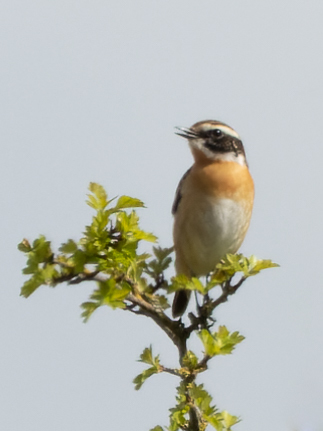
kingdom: Animalia
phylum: Chordata
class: Aves
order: Passeriformes
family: Muscicapidae
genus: Saxicola
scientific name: Saxicola rubetra
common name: Whinchat
